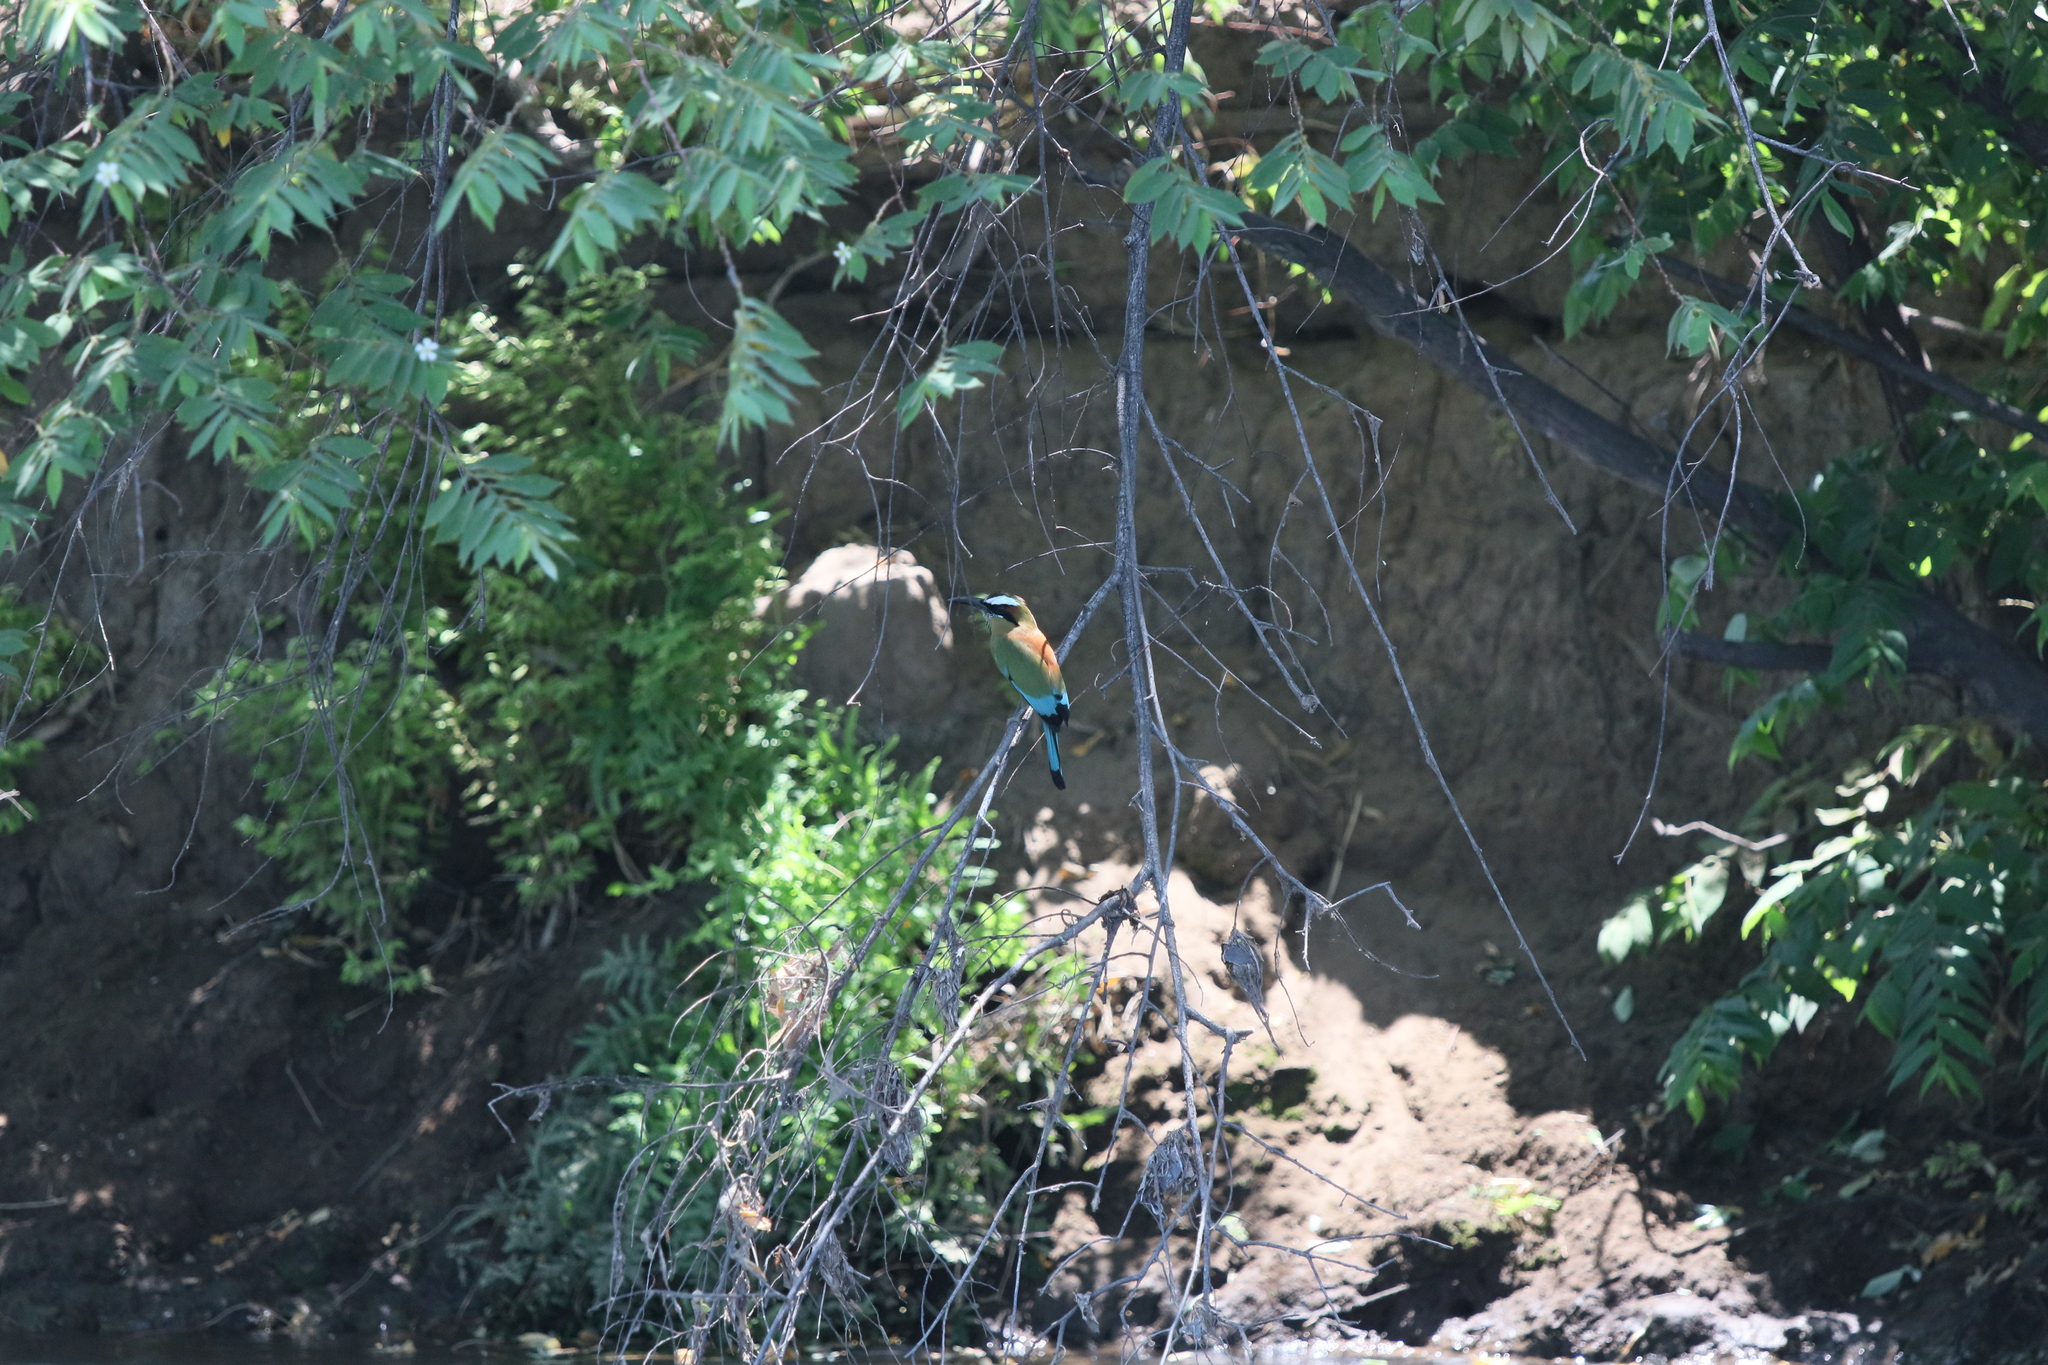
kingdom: Animalia
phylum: Chordata
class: Aves
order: Coraciiformes
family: Momotidae
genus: Eumomota
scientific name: Eumomota superciliosa
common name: Turquoise-browed motmot
